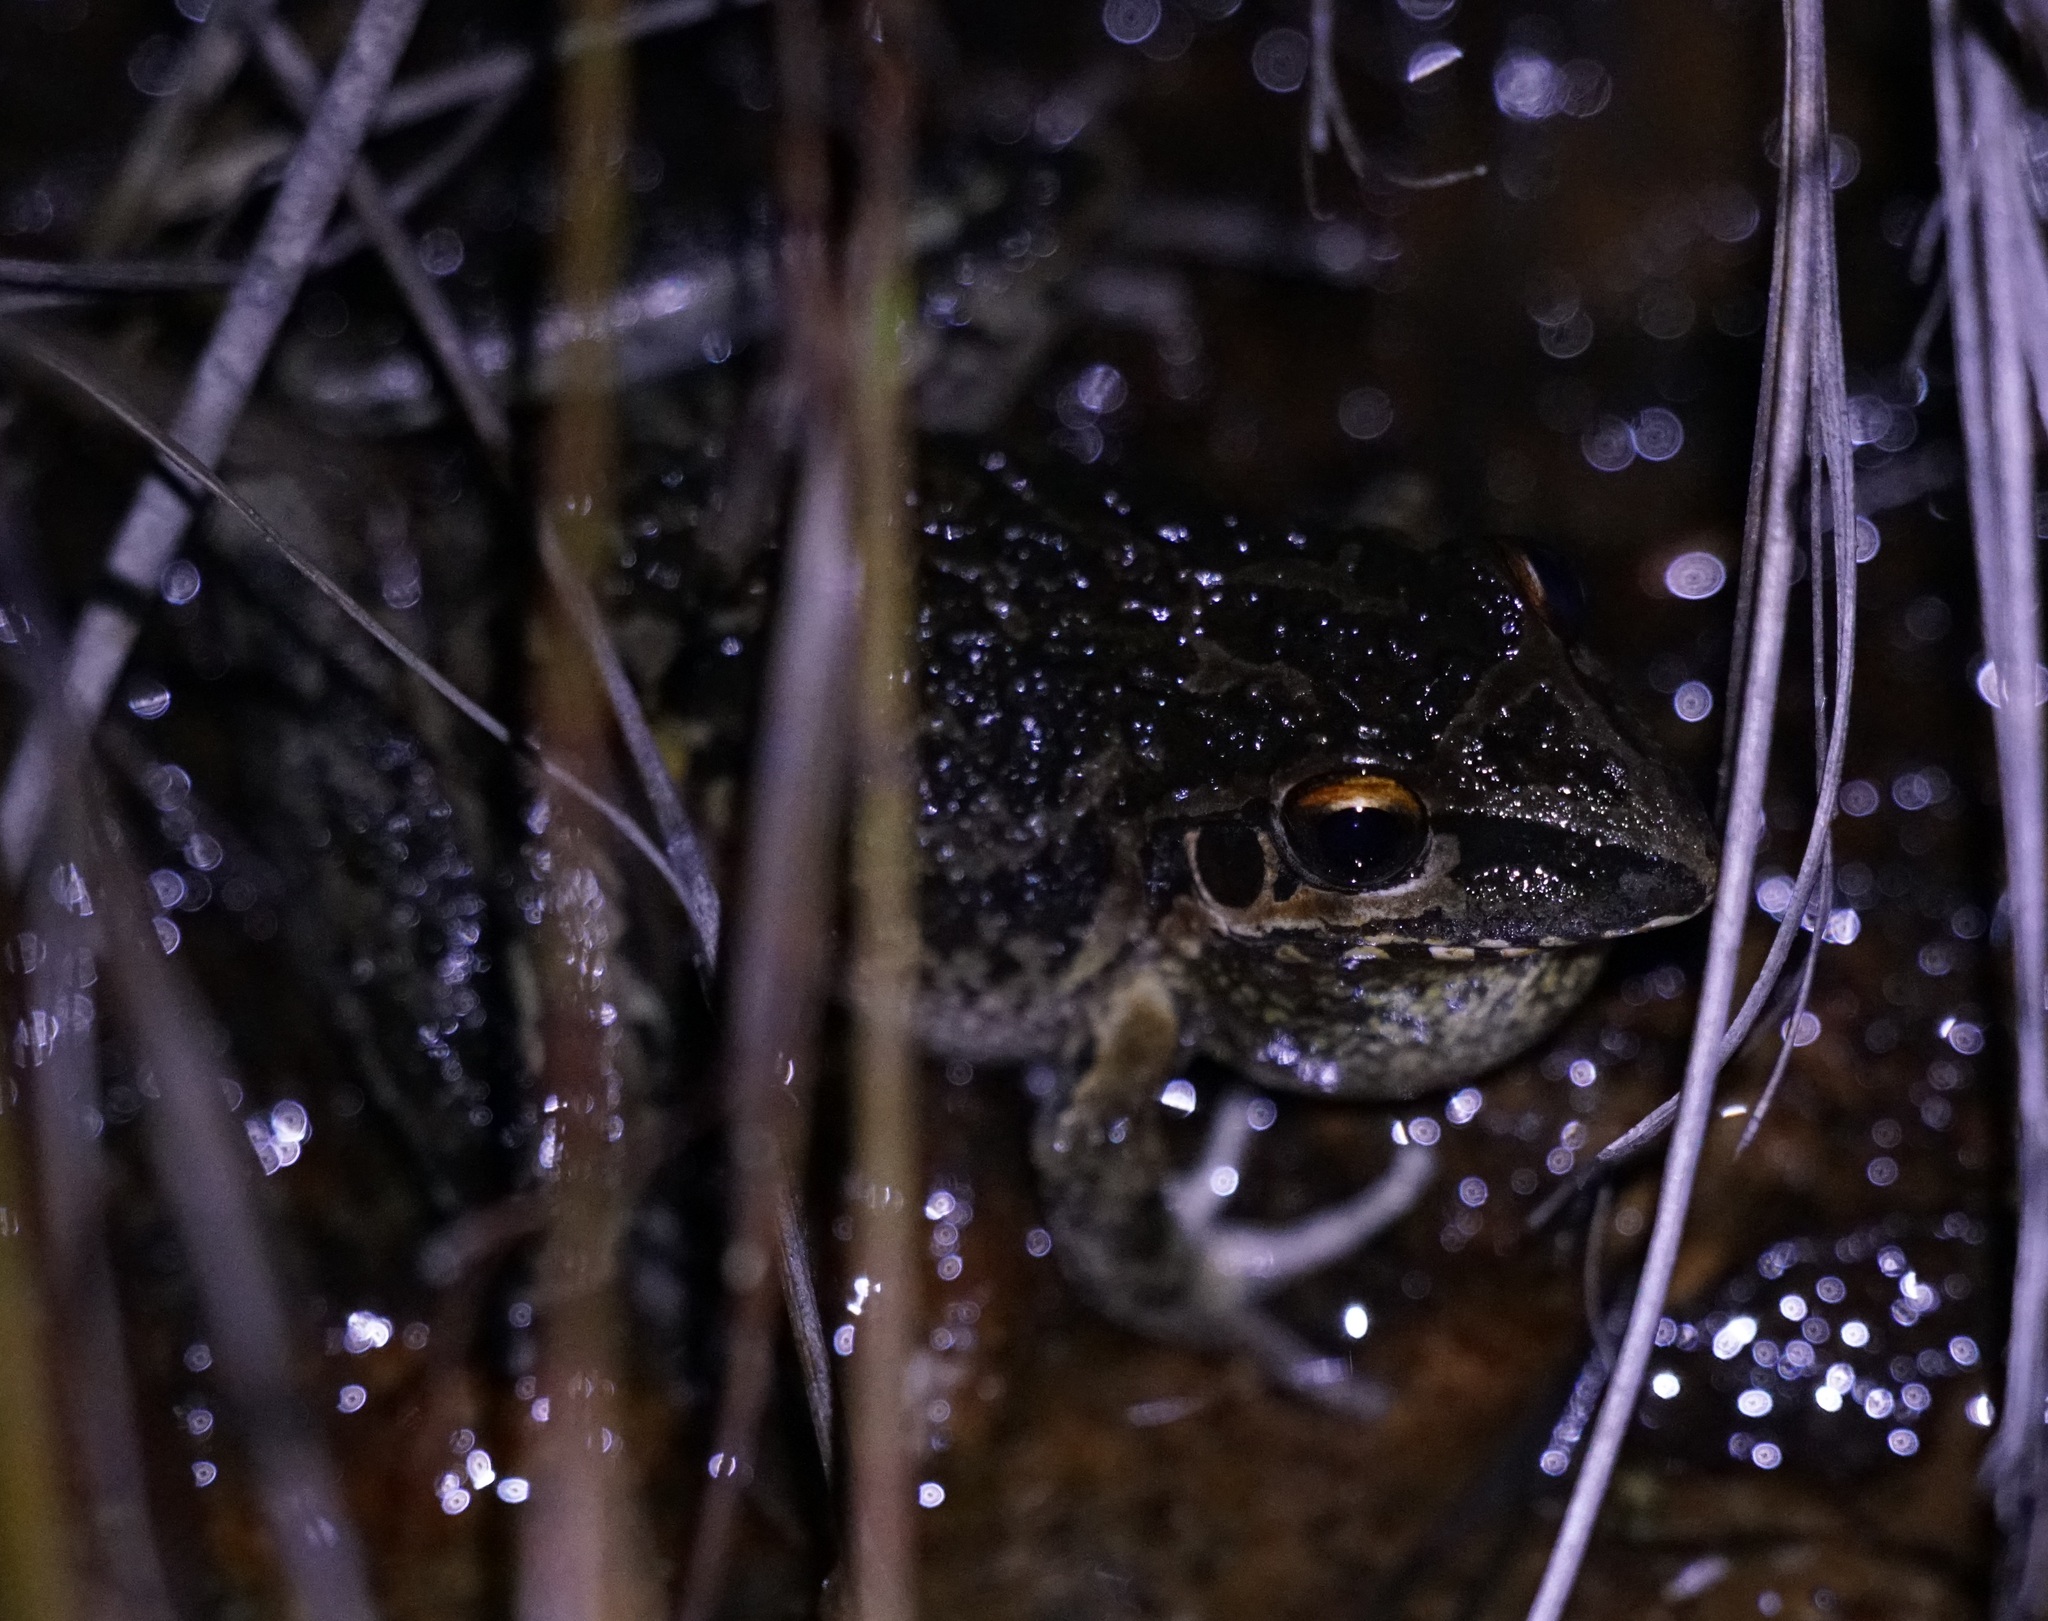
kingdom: Animalia
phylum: Chordata
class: Amphibia
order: Anura
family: Pelodryadidae
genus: Litoria
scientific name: Litoria freycineti
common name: Freycinet’s frog
